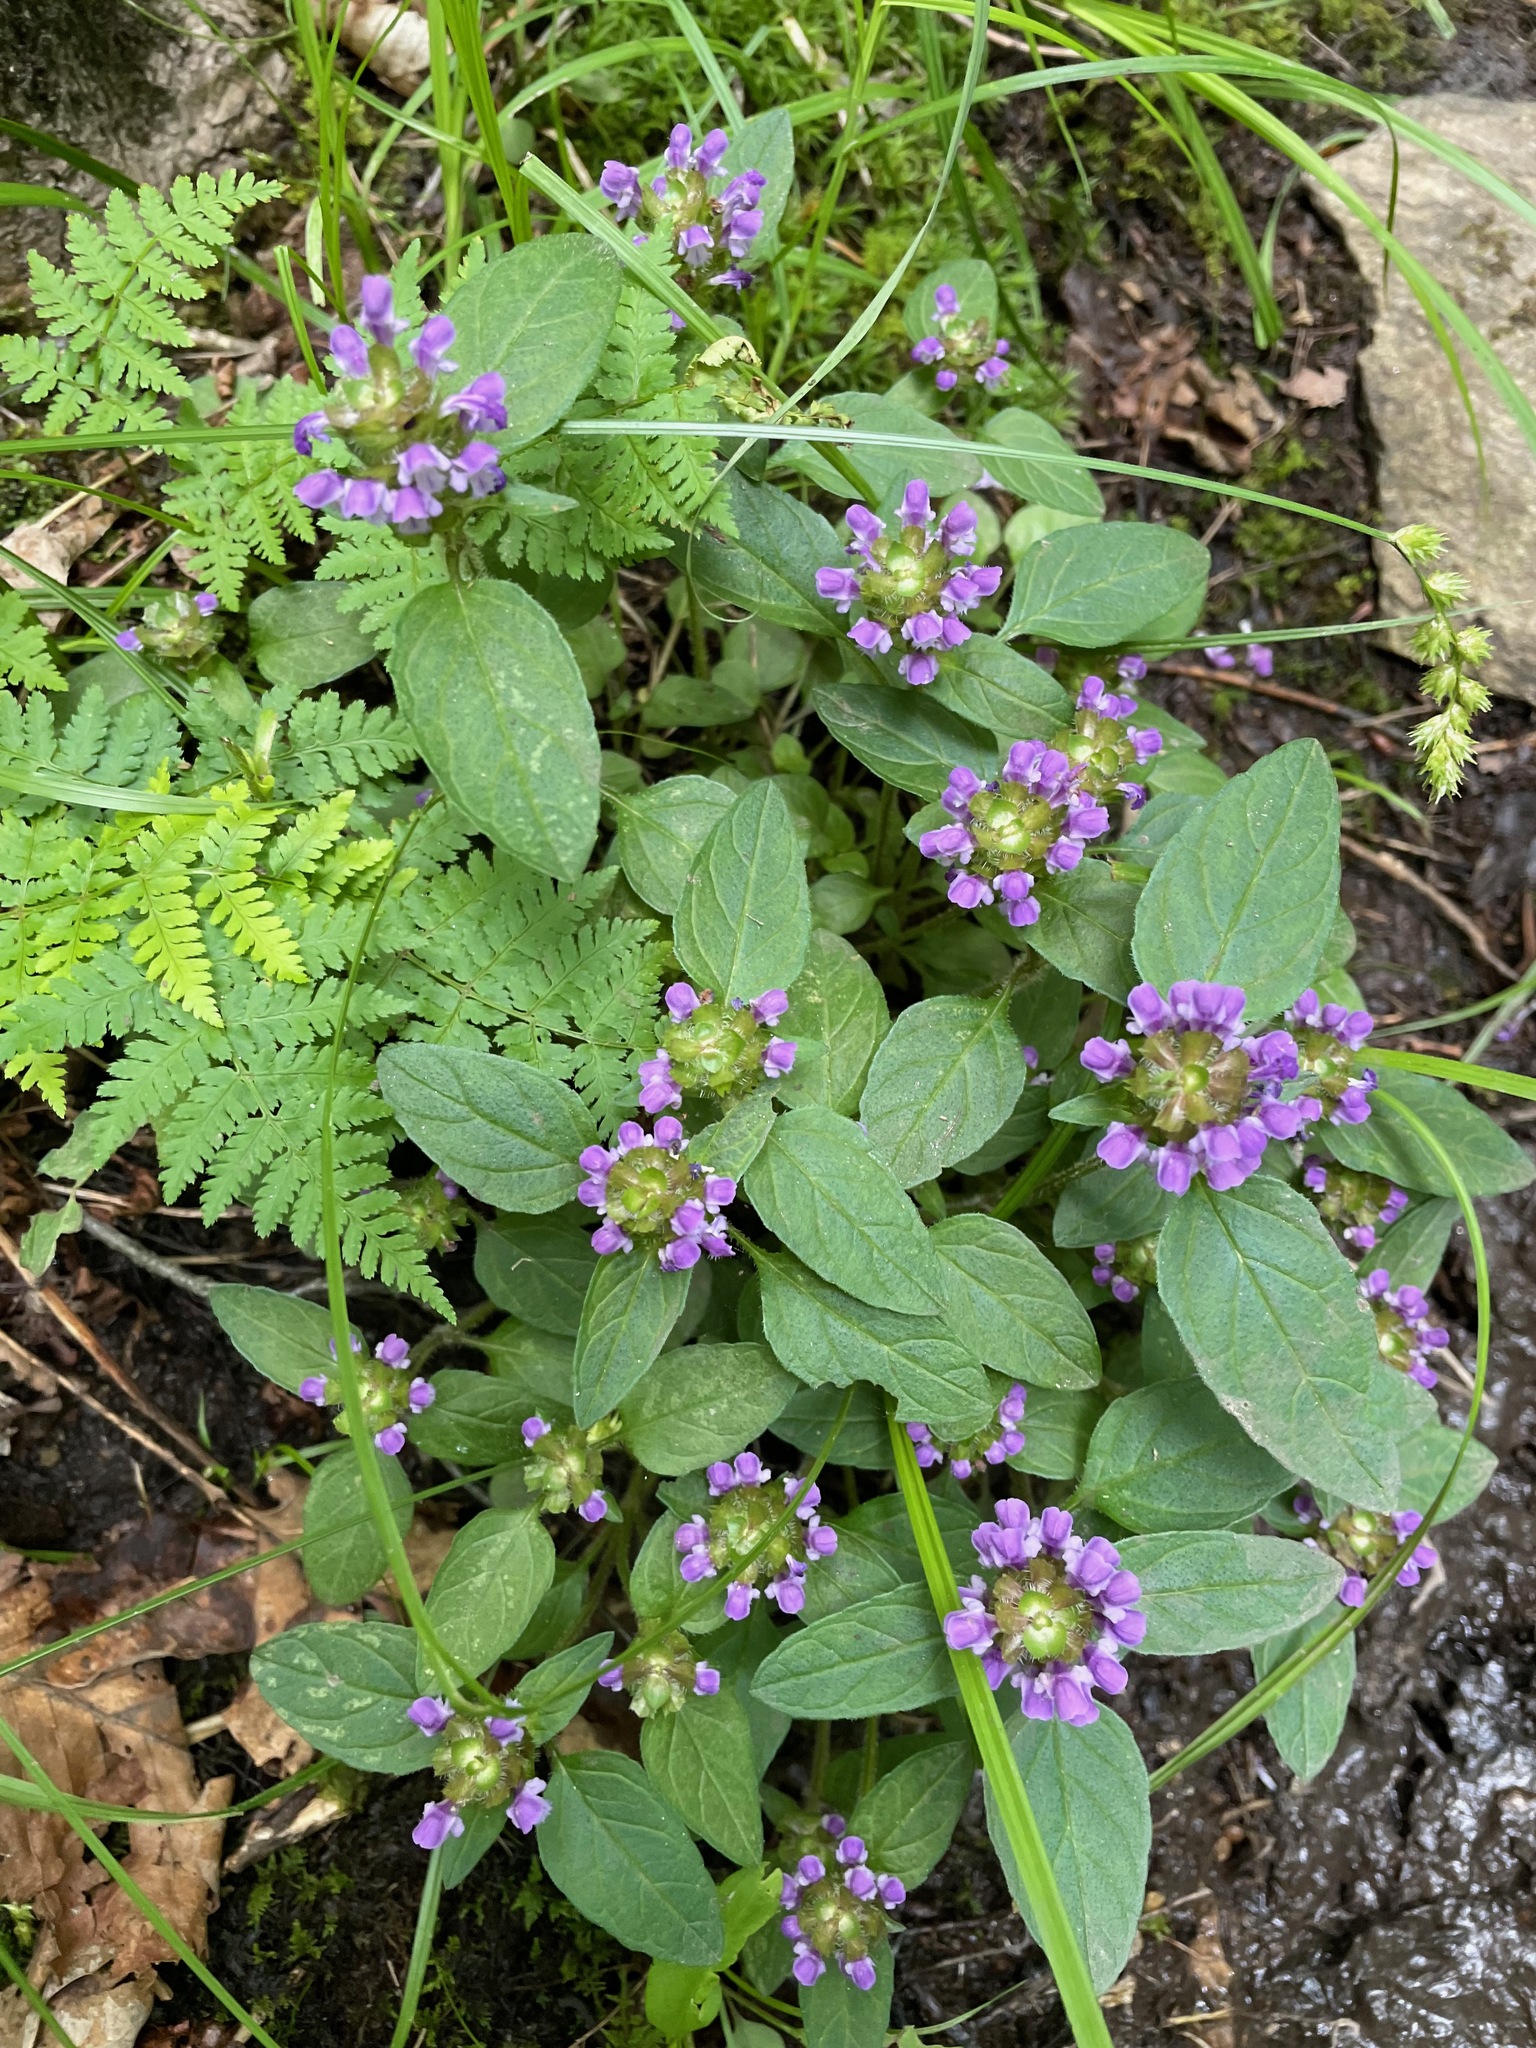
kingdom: Plantae
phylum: Tracheophyta
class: Magnoliopsida
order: Lamiales
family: Lamiaceae
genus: Prunella
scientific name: Prunella vulgaris
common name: Heal-all
